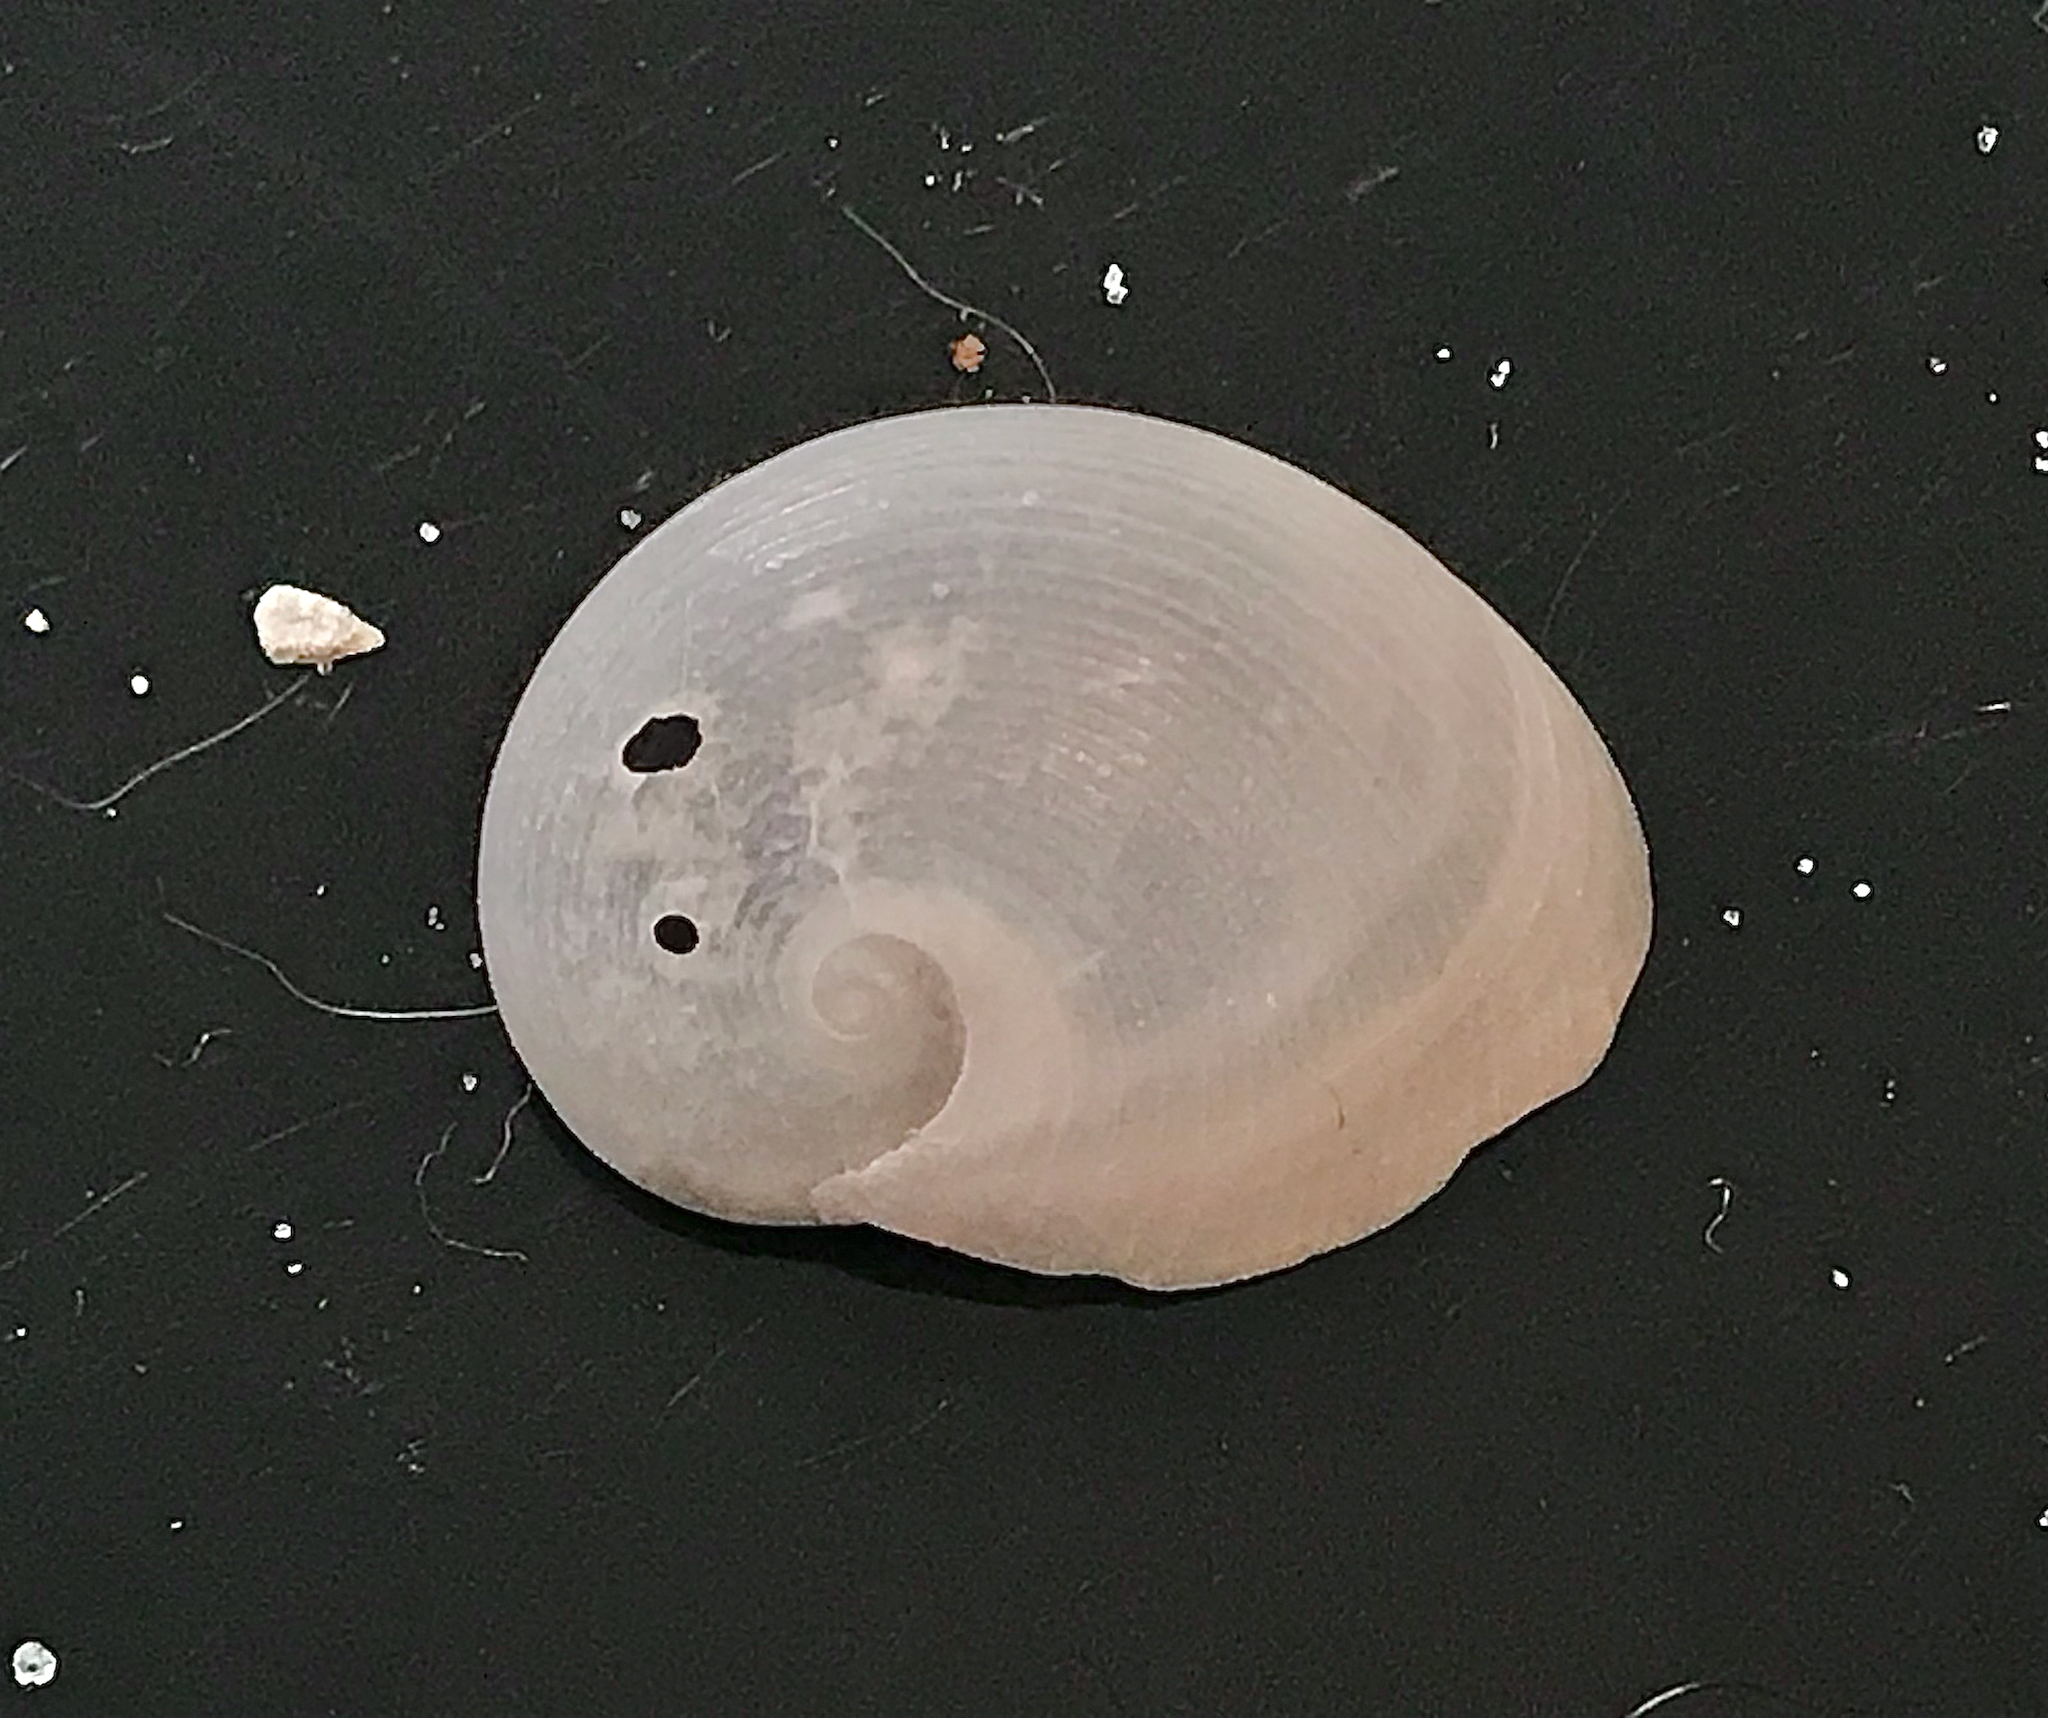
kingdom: Animalia
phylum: Mollusca
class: Gastropoda
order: Littorinimorpha
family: Naticidae
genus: Sinum
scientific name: Sinum perspectivum
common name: White baby ear
